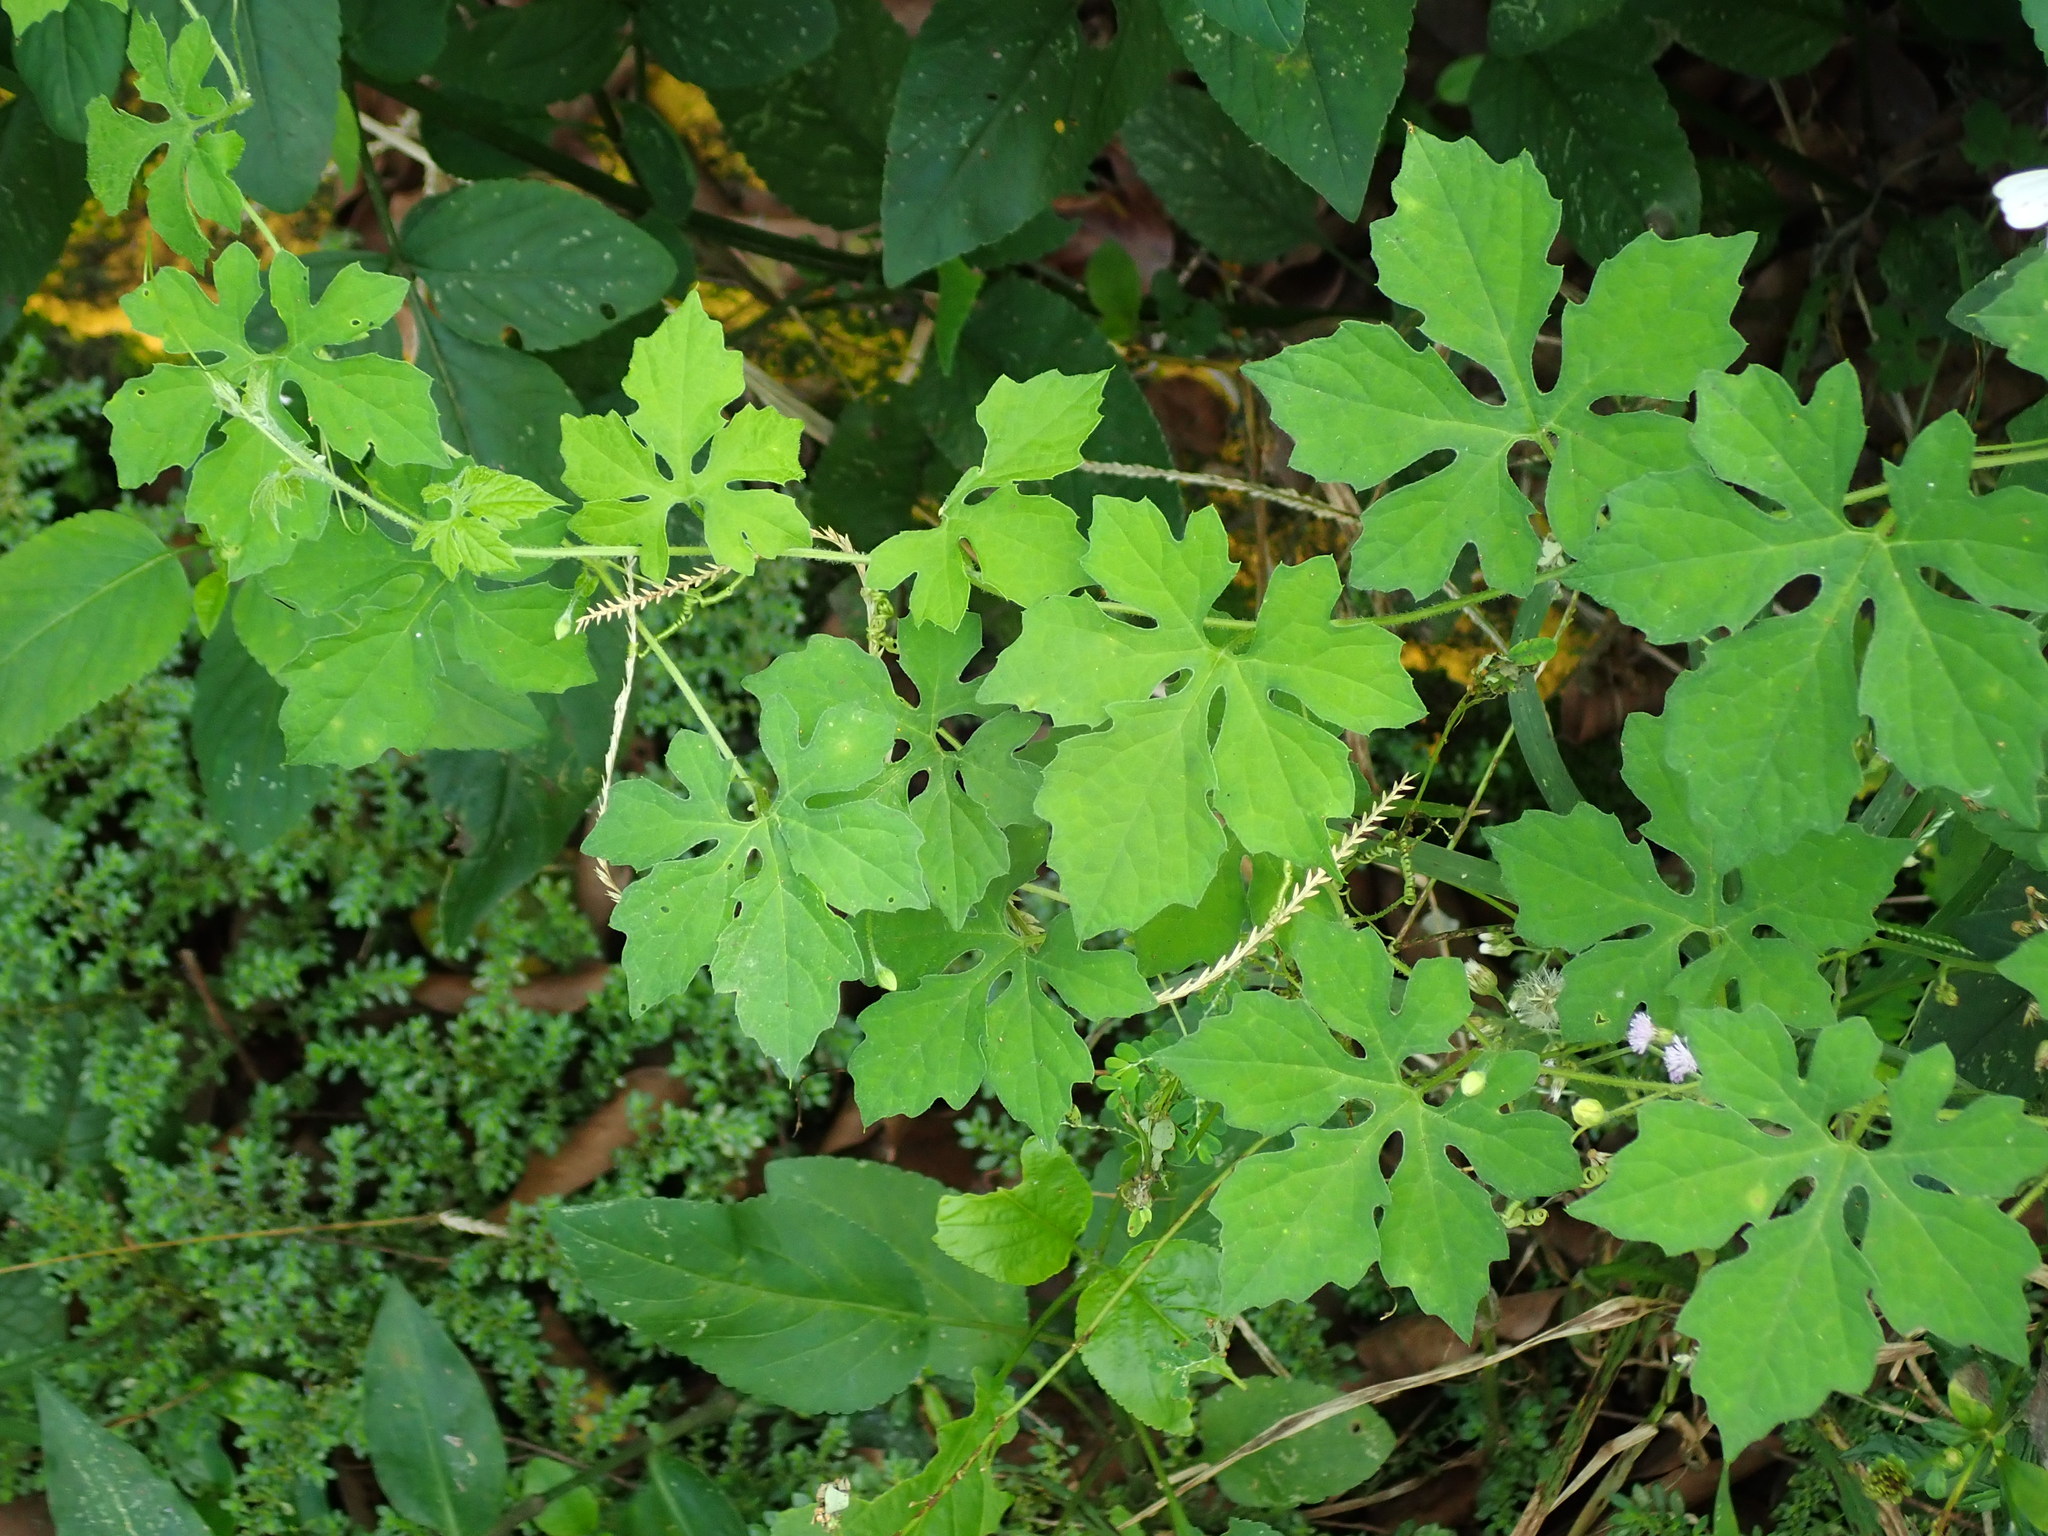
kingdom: Plantae
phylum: Tracheophyta
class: Magnoliopsida
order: Cucurbitales
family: Cucurbitaceae
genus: Momordica
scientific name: Momordica charantia
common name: Balsampear
